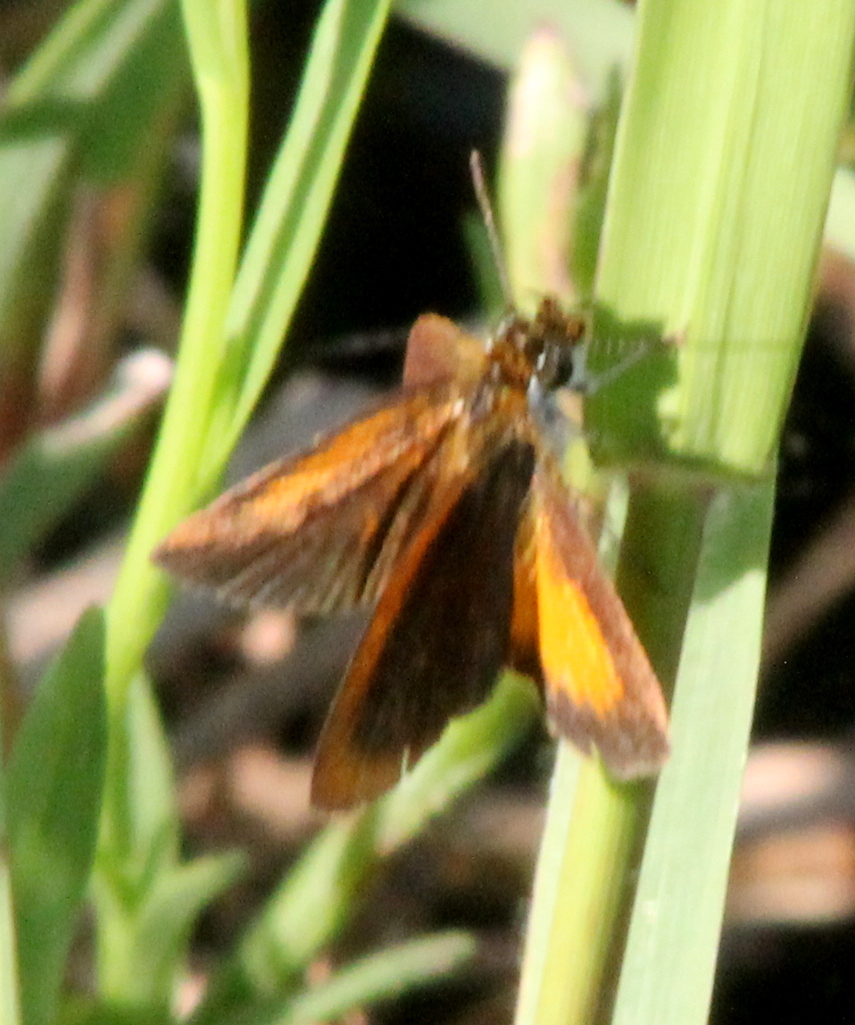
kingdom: Animalia
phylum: Arthropoda
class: Insecta
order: Lepidoptera
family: Hesperiidae
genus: Ancyloxypha
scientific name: Ancyloxypha numitor
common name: Least skipper
